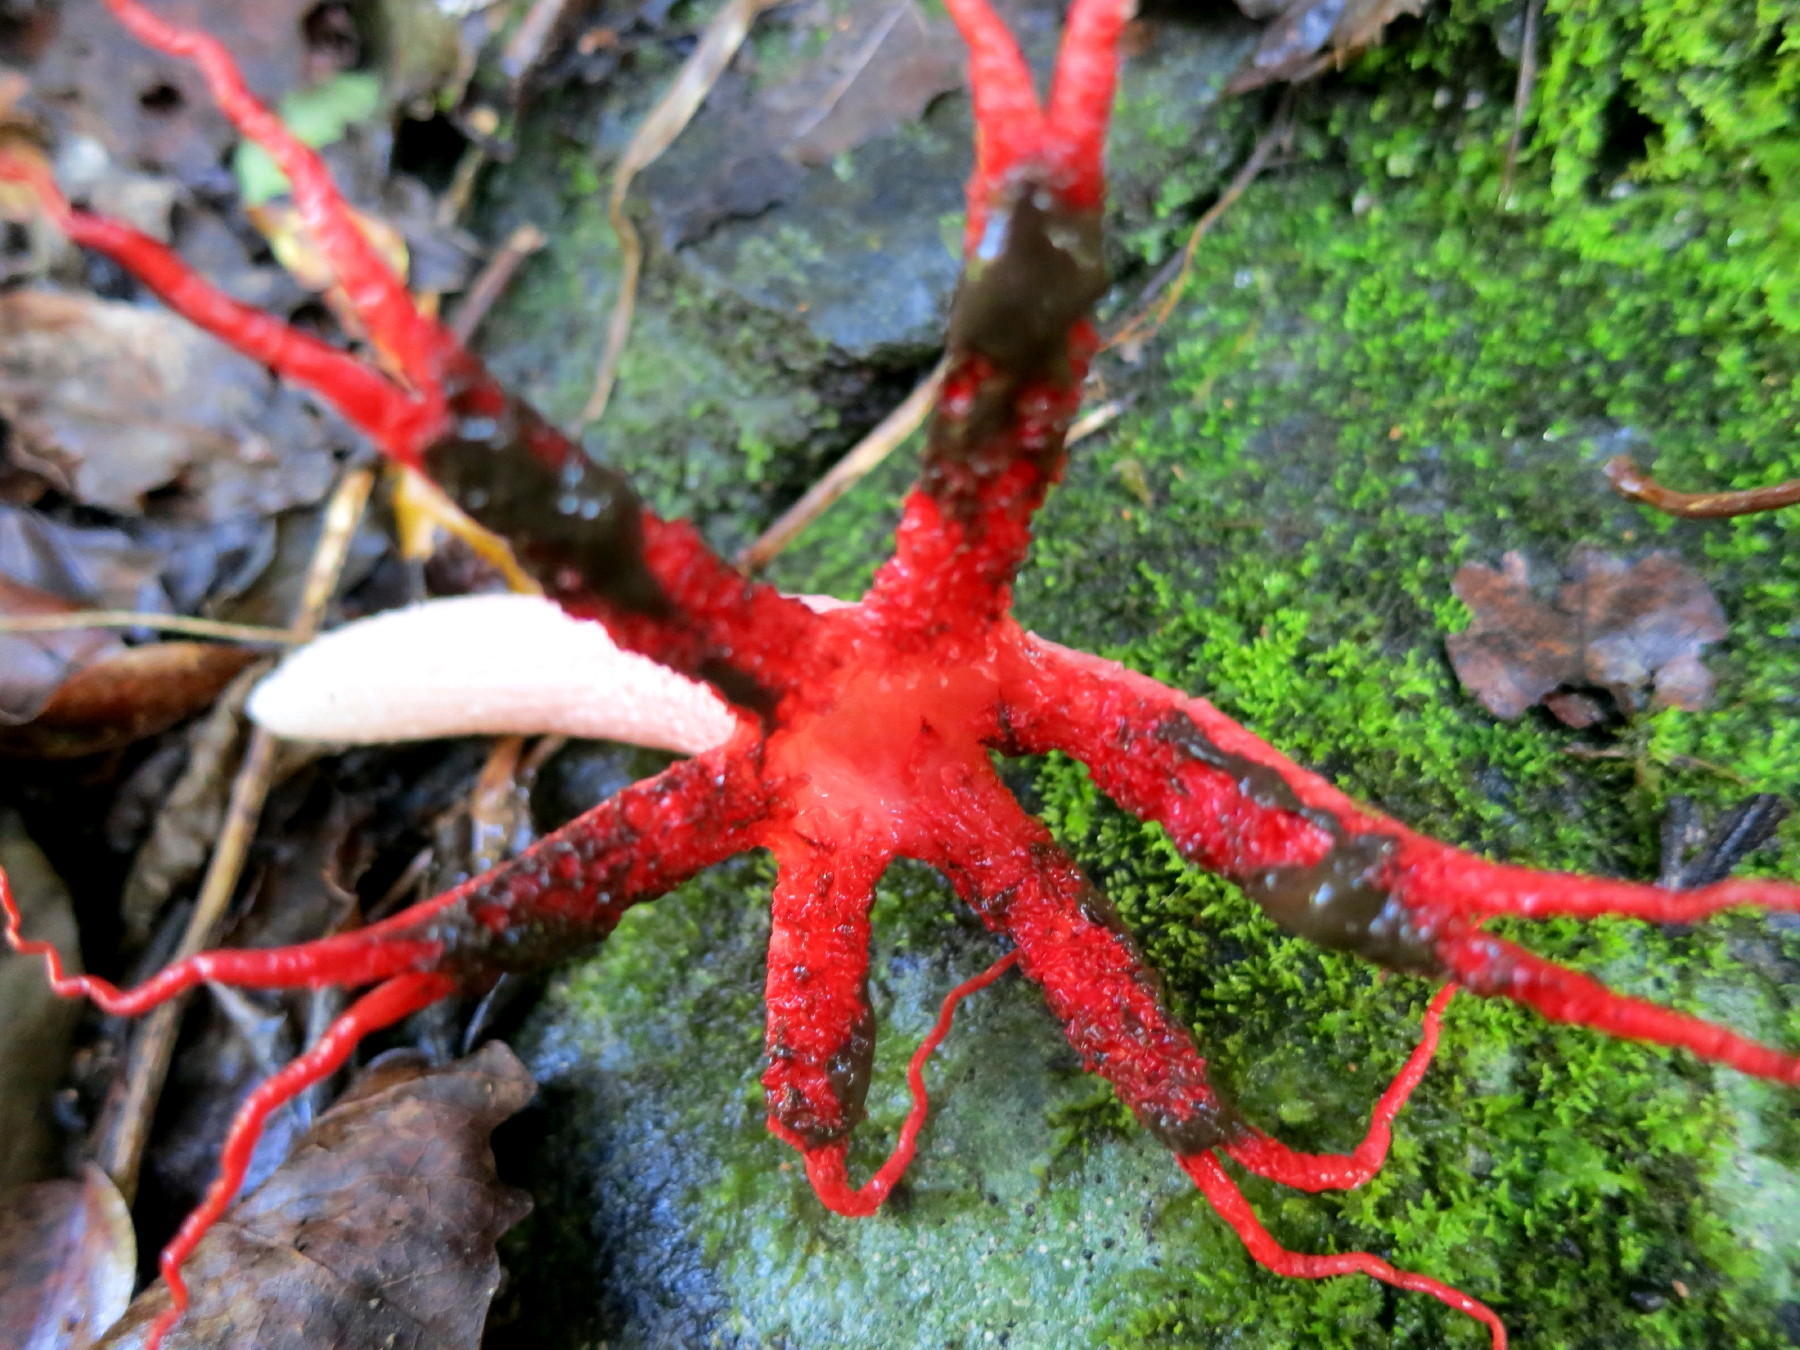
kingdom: Fungi
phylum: Basidiomycota
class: Agaricomycetes
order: Phallales
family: Phallaceae
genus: Clathrus
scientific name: Clathrus archeri
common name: Devil's fingers
